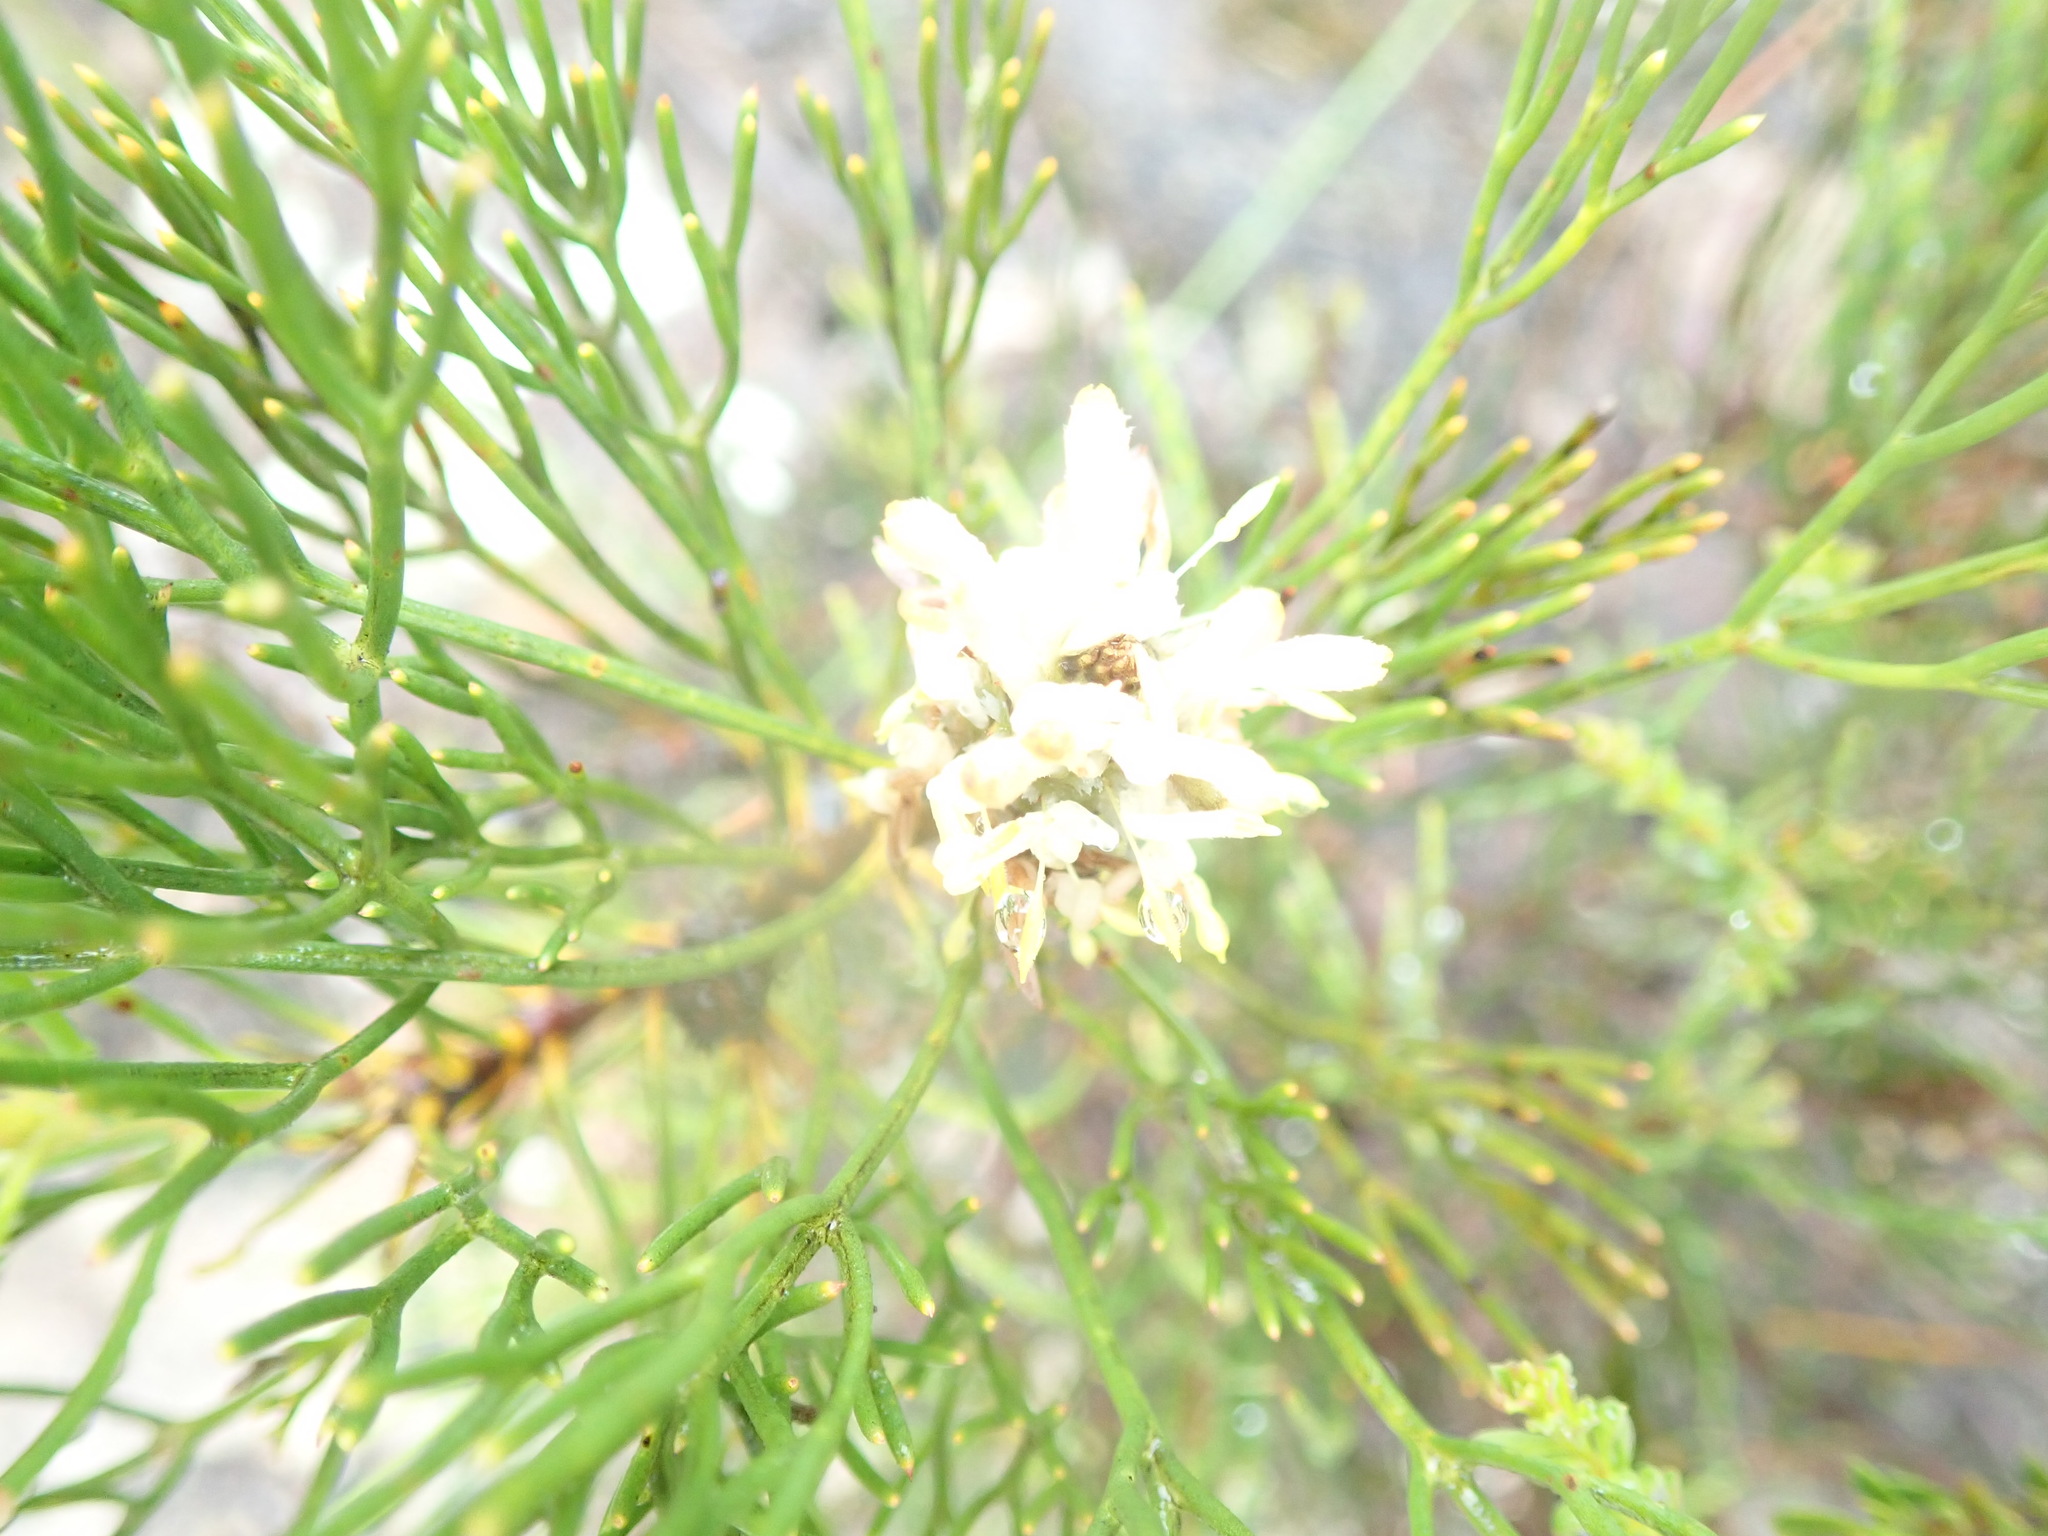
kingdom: Plantae
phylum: Tracheophyta
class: Magnoliopsida
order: Proteales
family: Proteaceae
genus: Petrophile
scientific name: Petrophile pulchella
